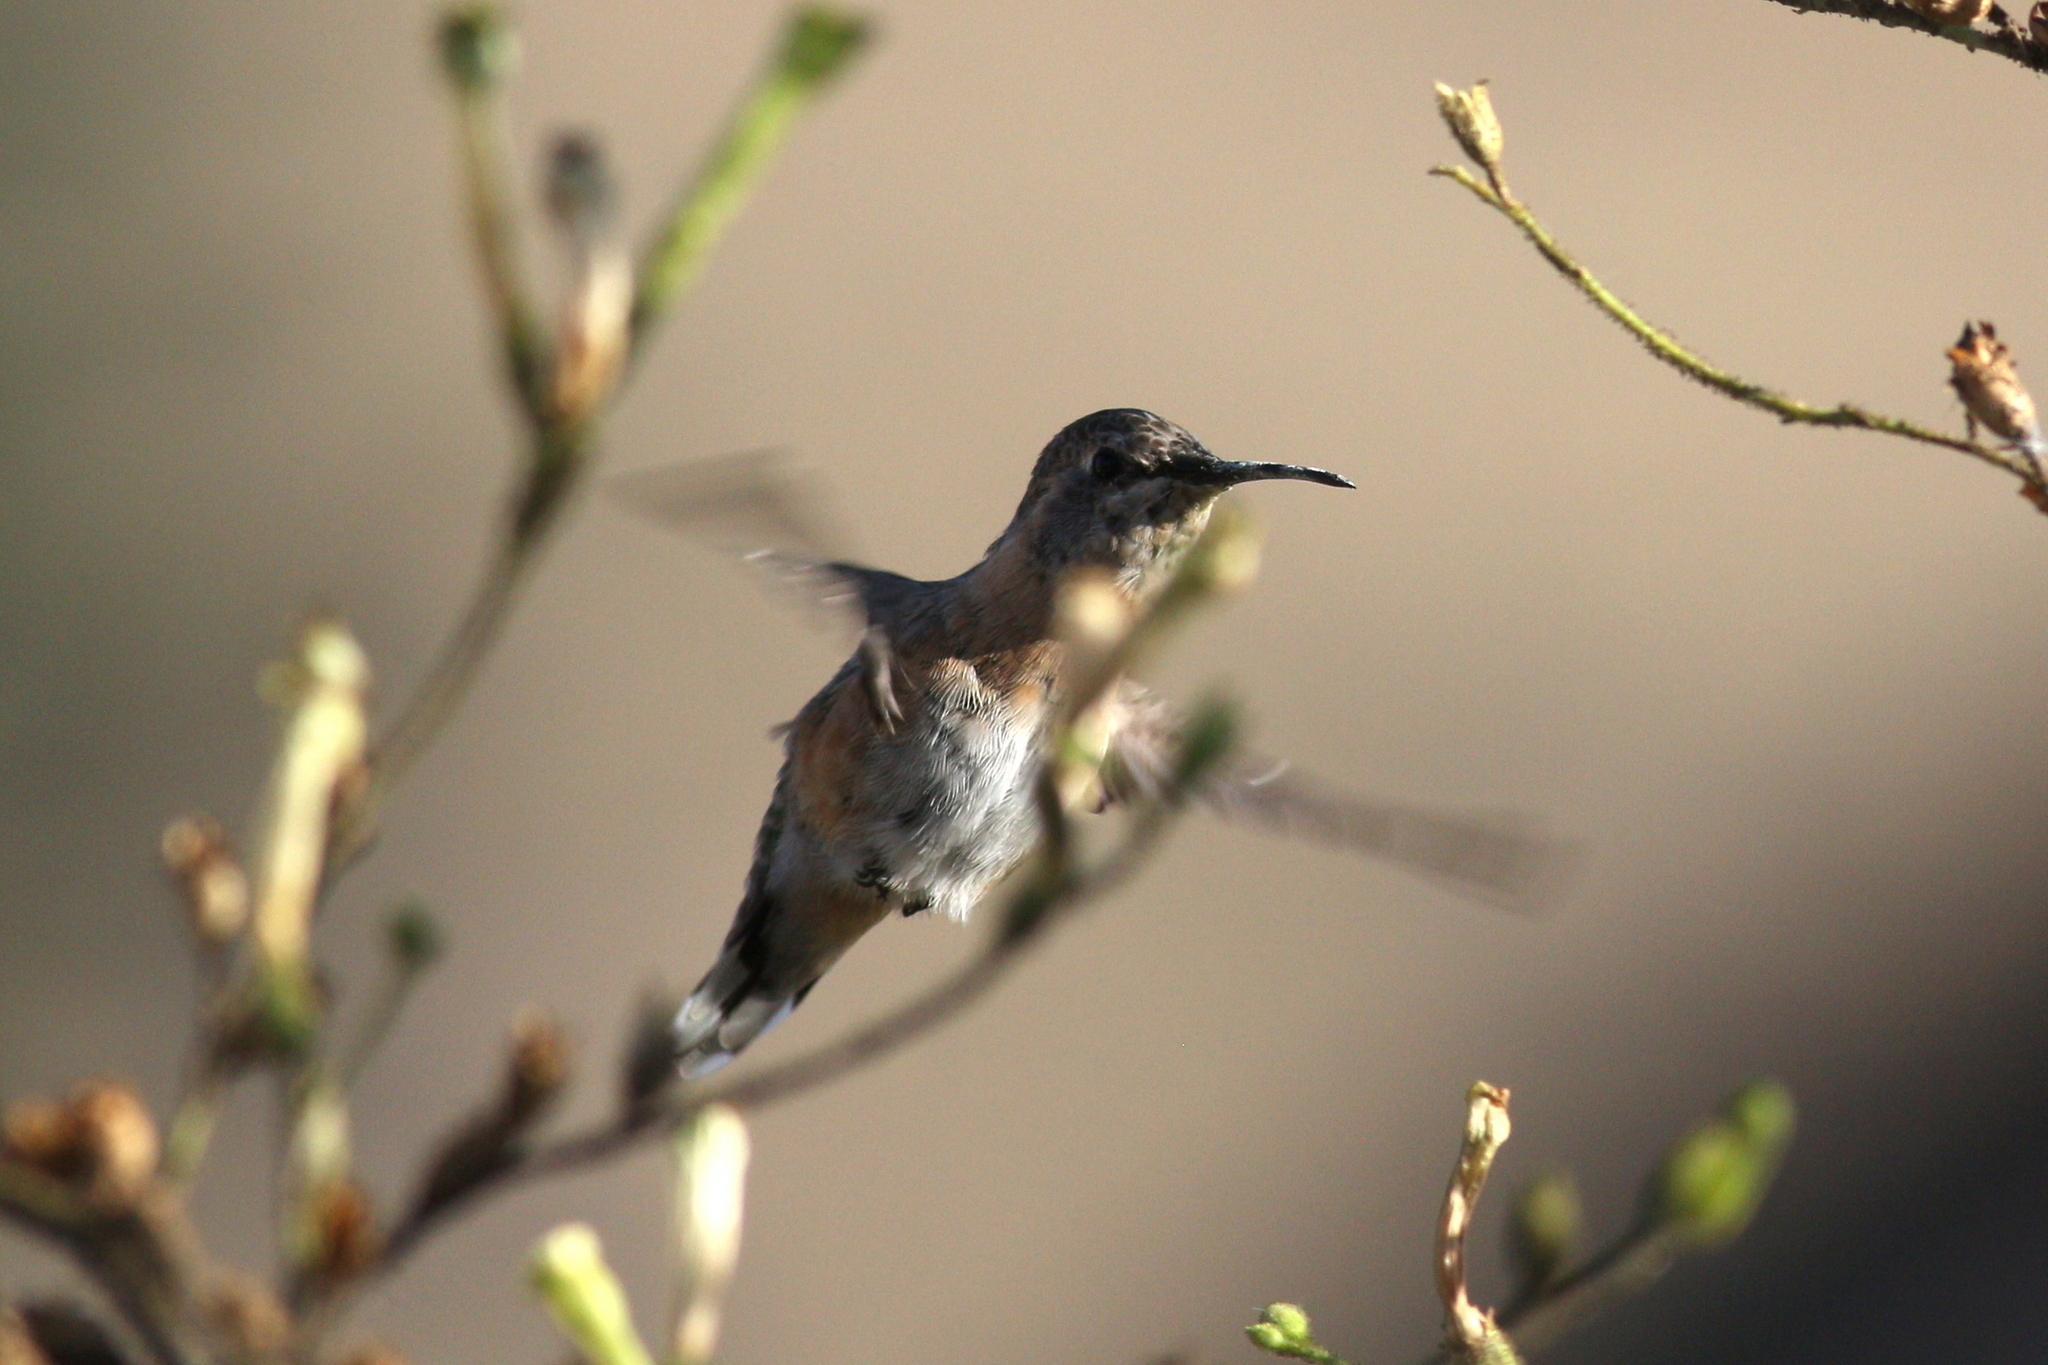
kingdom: Animalia
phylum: Chordata
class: Aves
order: Apodiformes
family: Trochilidae
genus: Myrtis
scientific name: Myrtis fanny
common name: Purple-collared woodstar
